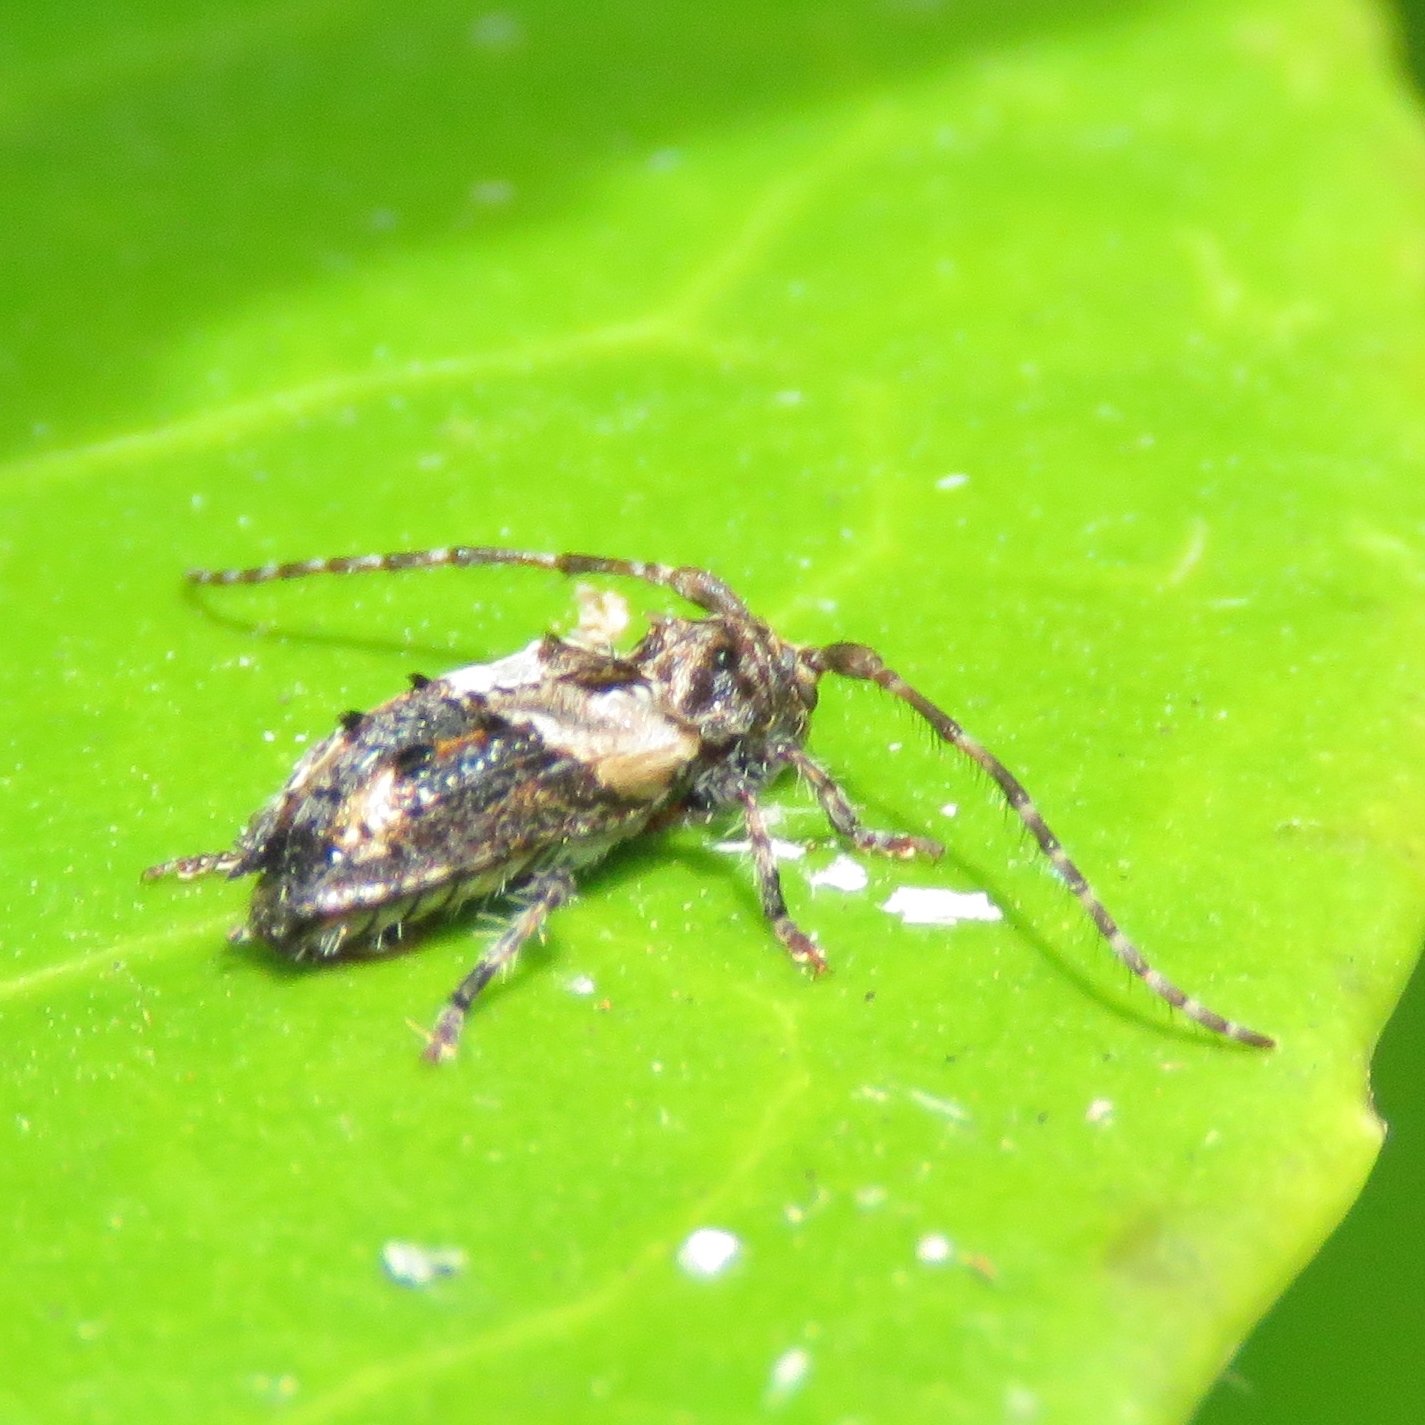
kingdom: Animalia
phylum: Arthropoda
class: Insecta
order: Coleoptera
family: Cerambycidae
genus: Pogonocherus
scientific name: Pogonocherus hispidus
